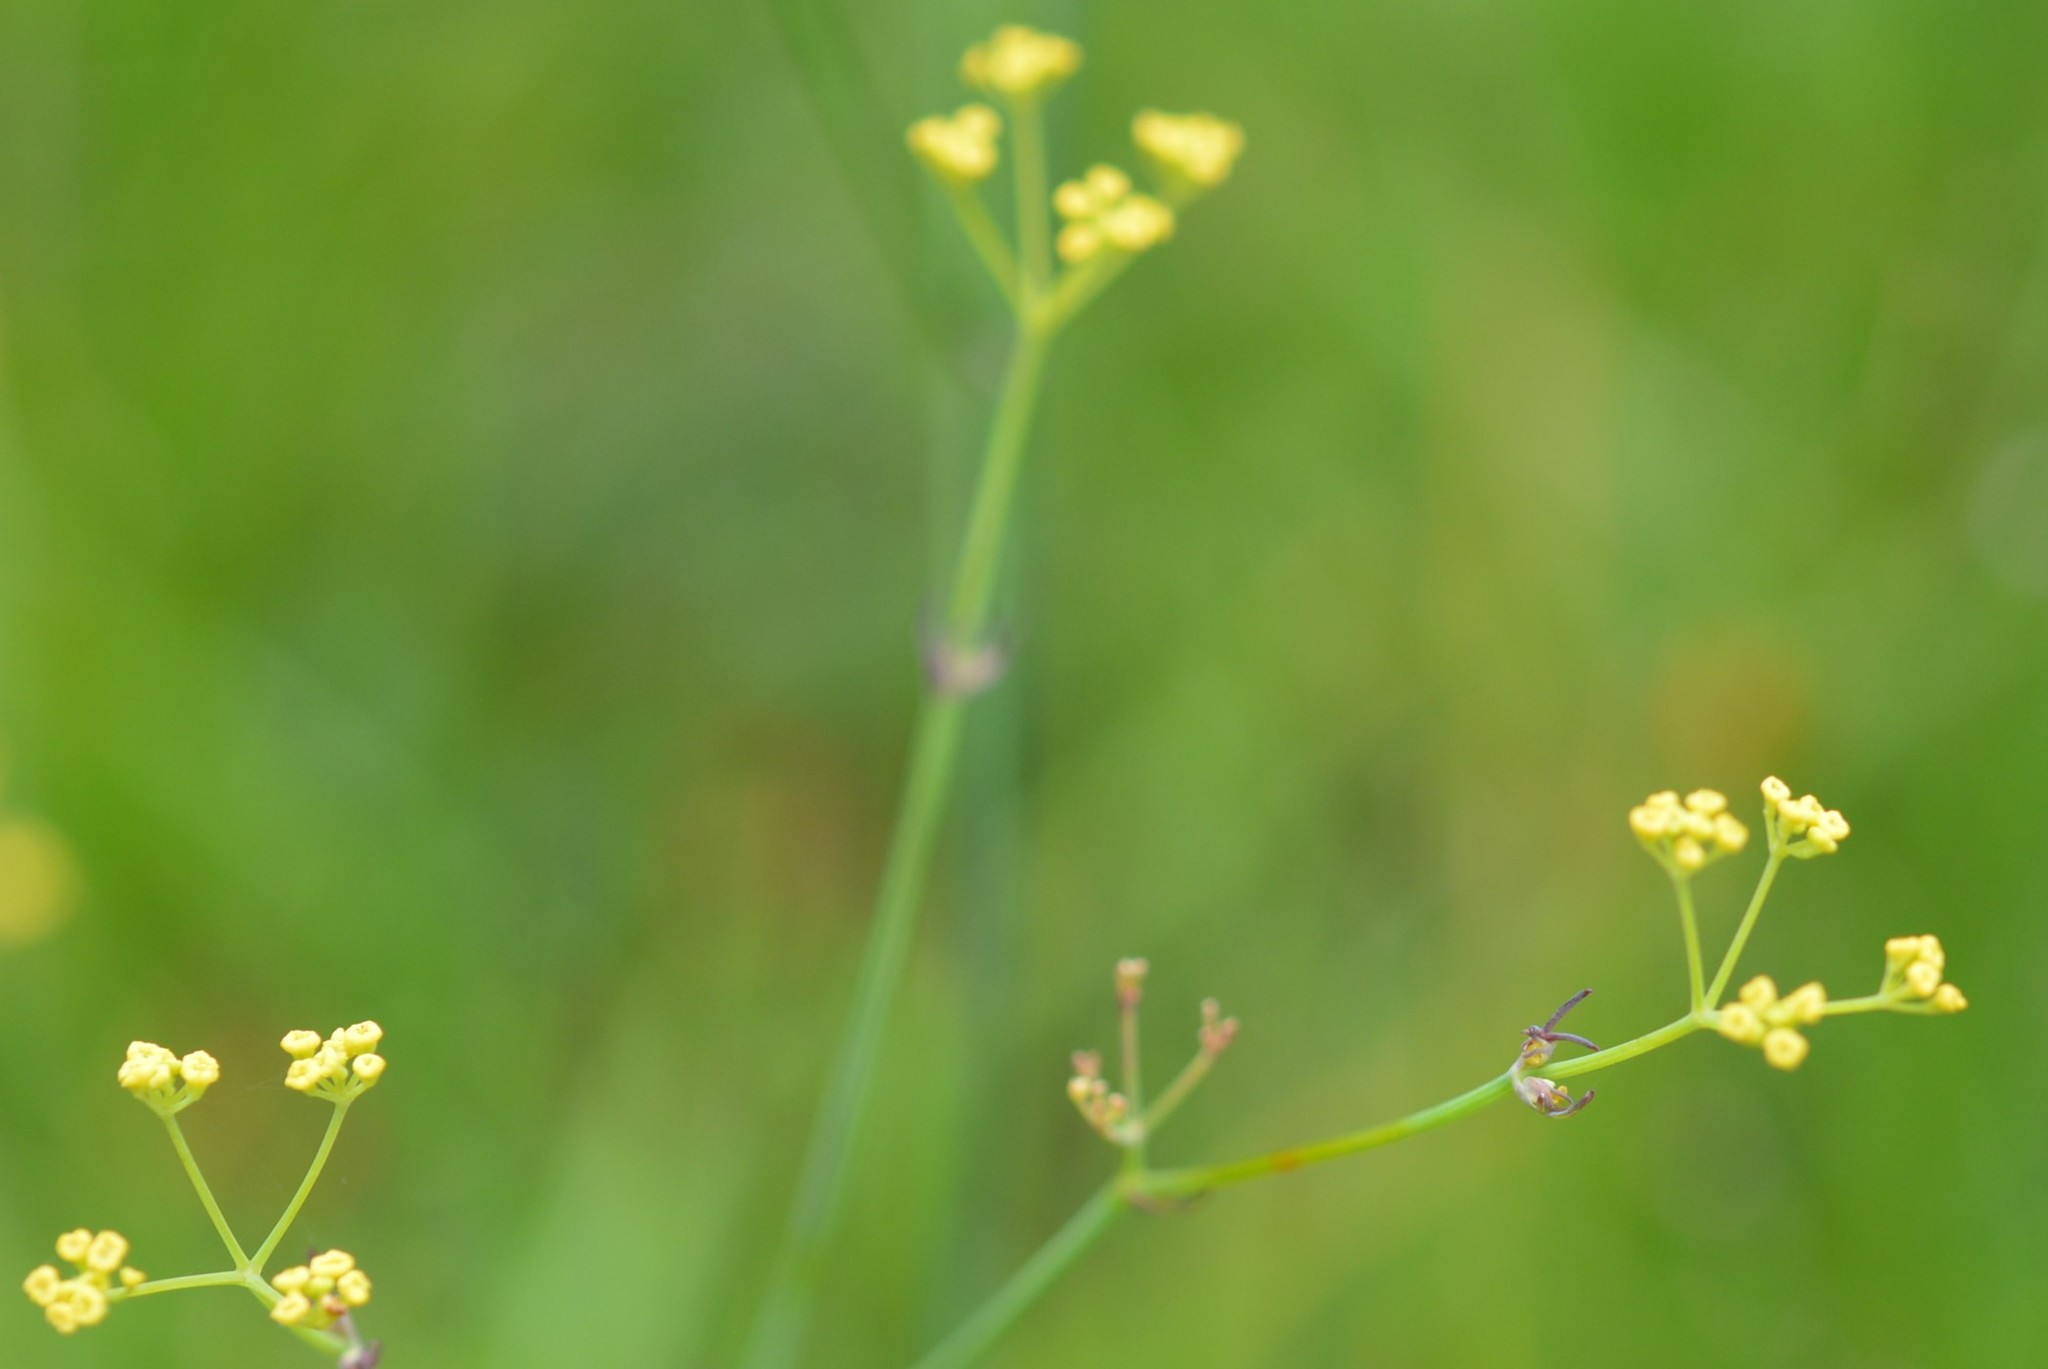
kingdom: Plantae
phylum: Tracheophyta
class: Magnoliopsida
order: Apiales
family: Apiaceae
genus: Donnellsmithia
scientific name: Donnellsmithia juncea
